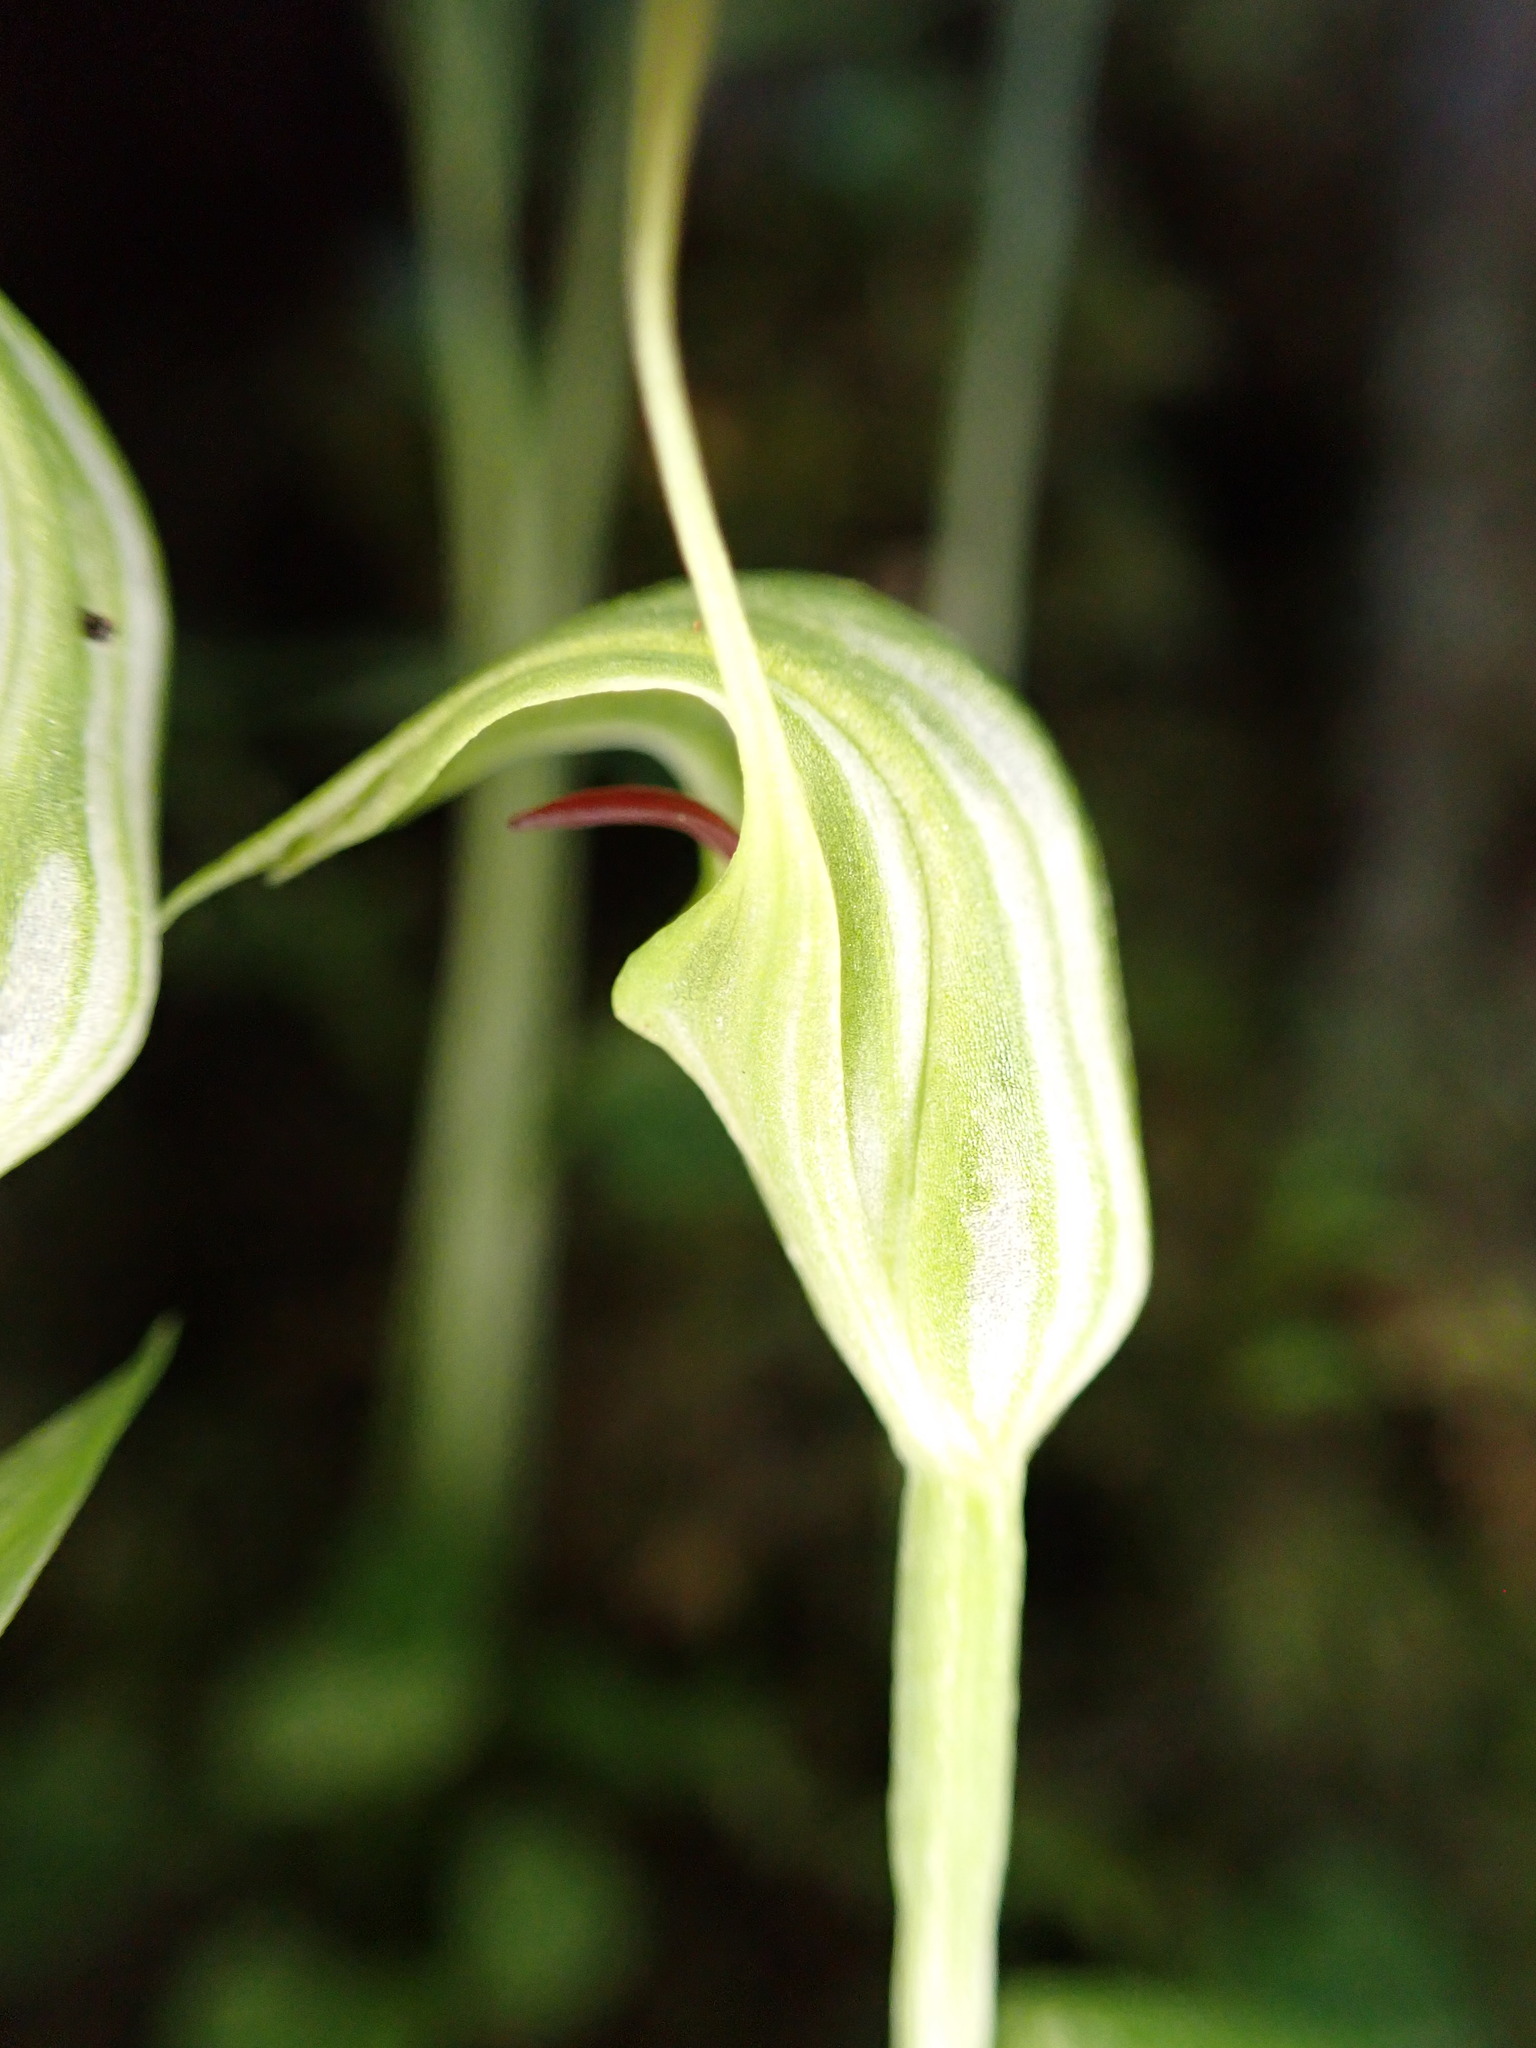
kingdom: Plantae
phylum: Tracheophyta
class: Liliopsida
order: Asparagales
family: Orchidaceae
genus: Pterostylis
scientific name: Pterostylis trullifolia
